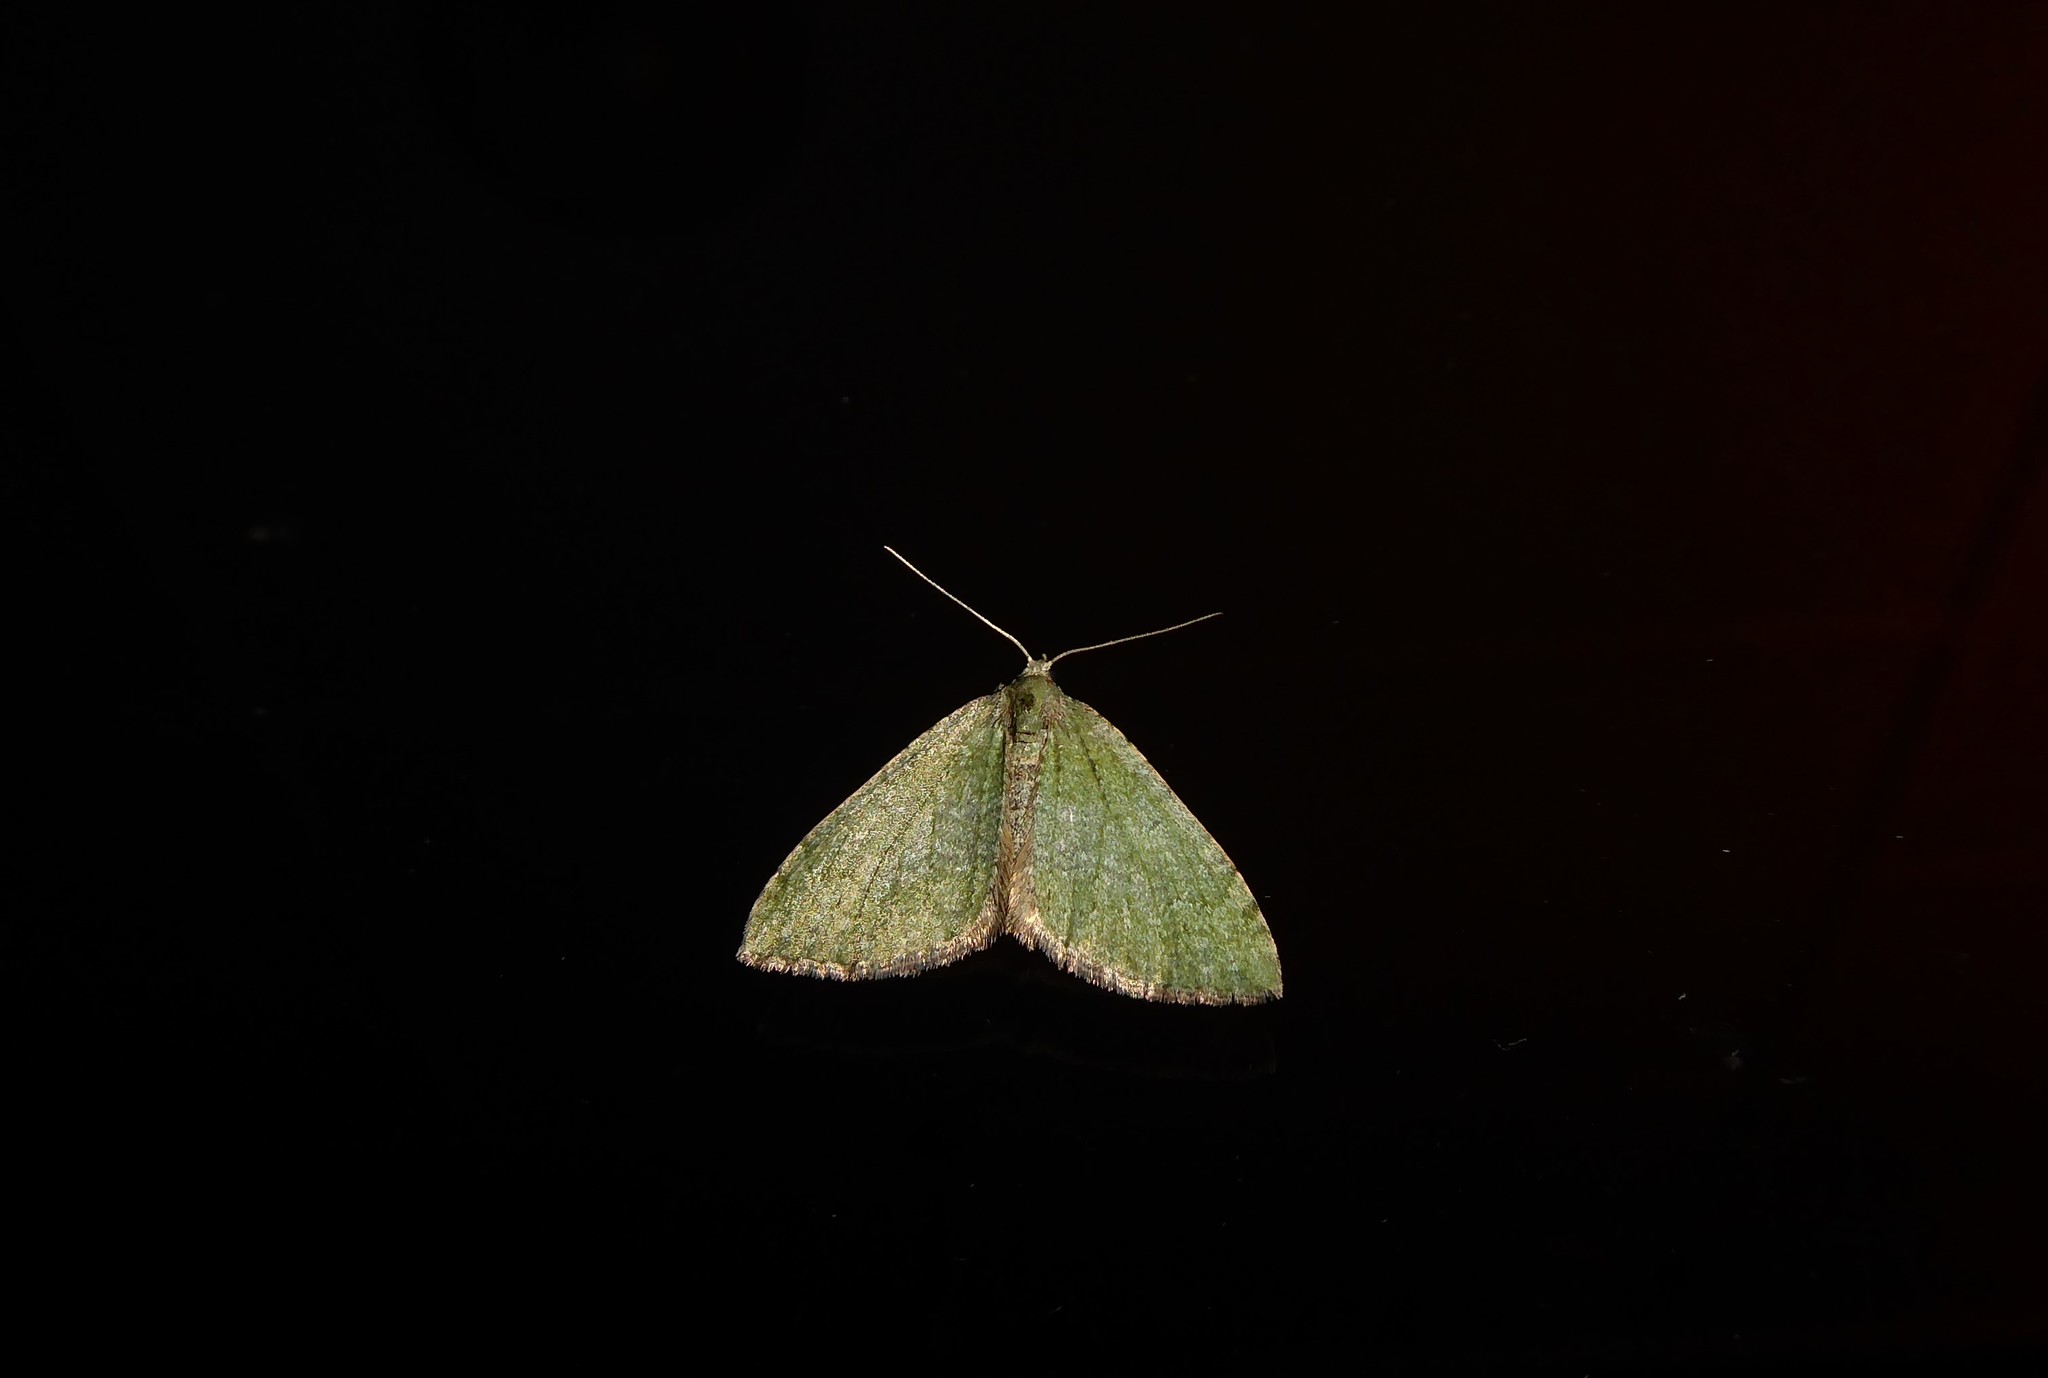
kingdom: Animalia
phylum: Arthropoda
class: Insecta
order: Lepidoptera
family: Geometridae
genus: Epyaxa
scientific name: Epyaxa rosearia
